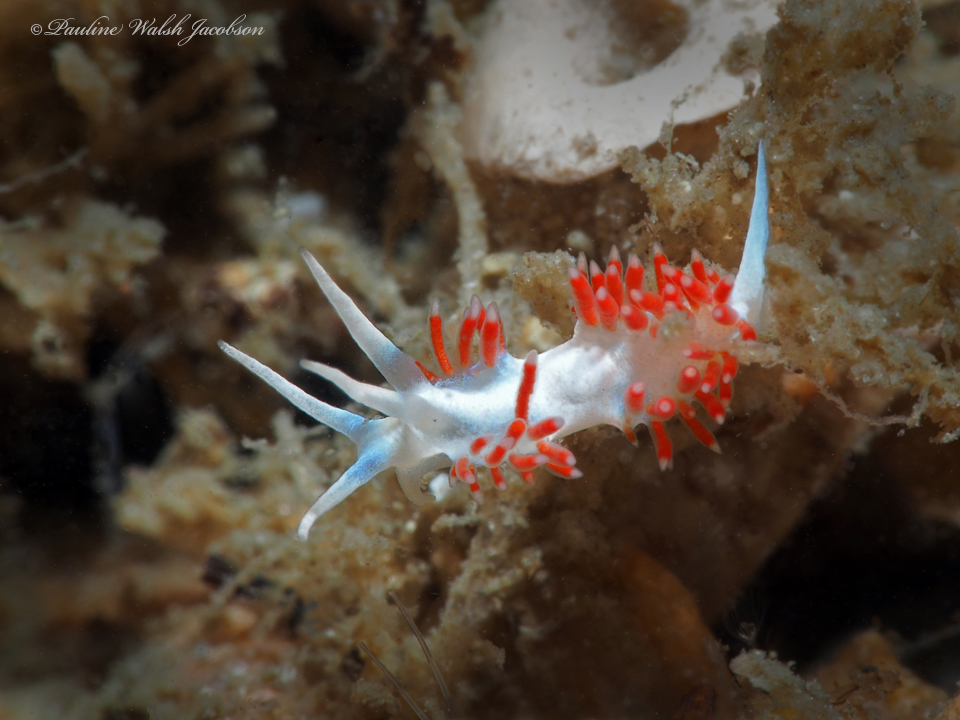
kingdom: Animalia
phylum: Mollusca
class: Gastropoda
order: Nudibranchia
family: Flabellinidae
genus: Flabellina
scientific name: Flabellina dushia
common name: Dushia flabellina
